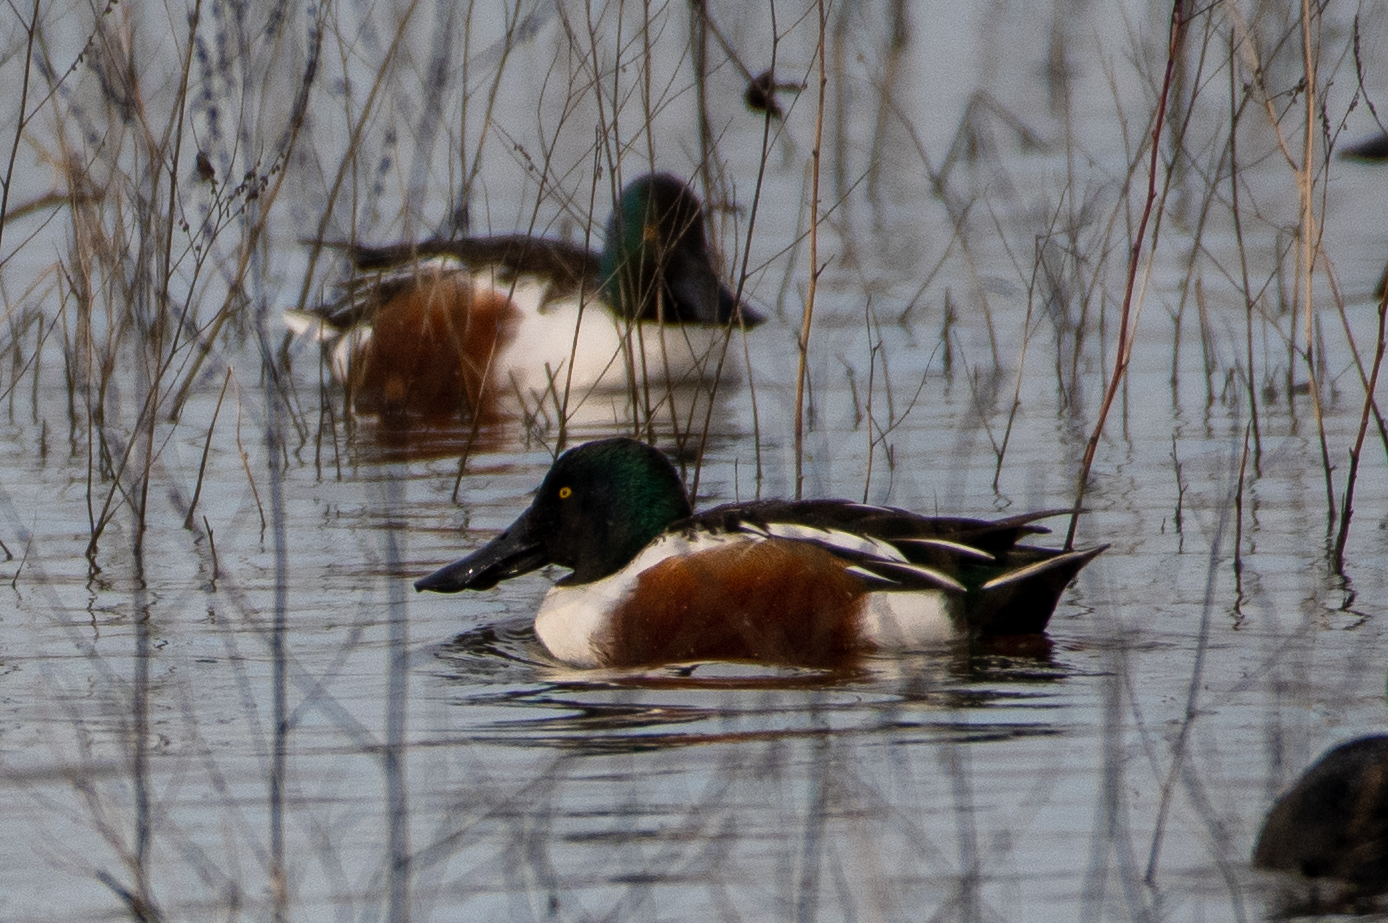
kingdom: Animalia
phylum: Chordata
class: Aves
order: Anseriformes
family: Anatidae
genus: Spatula
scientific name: Spatula clypeata
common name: Northern shoveler
